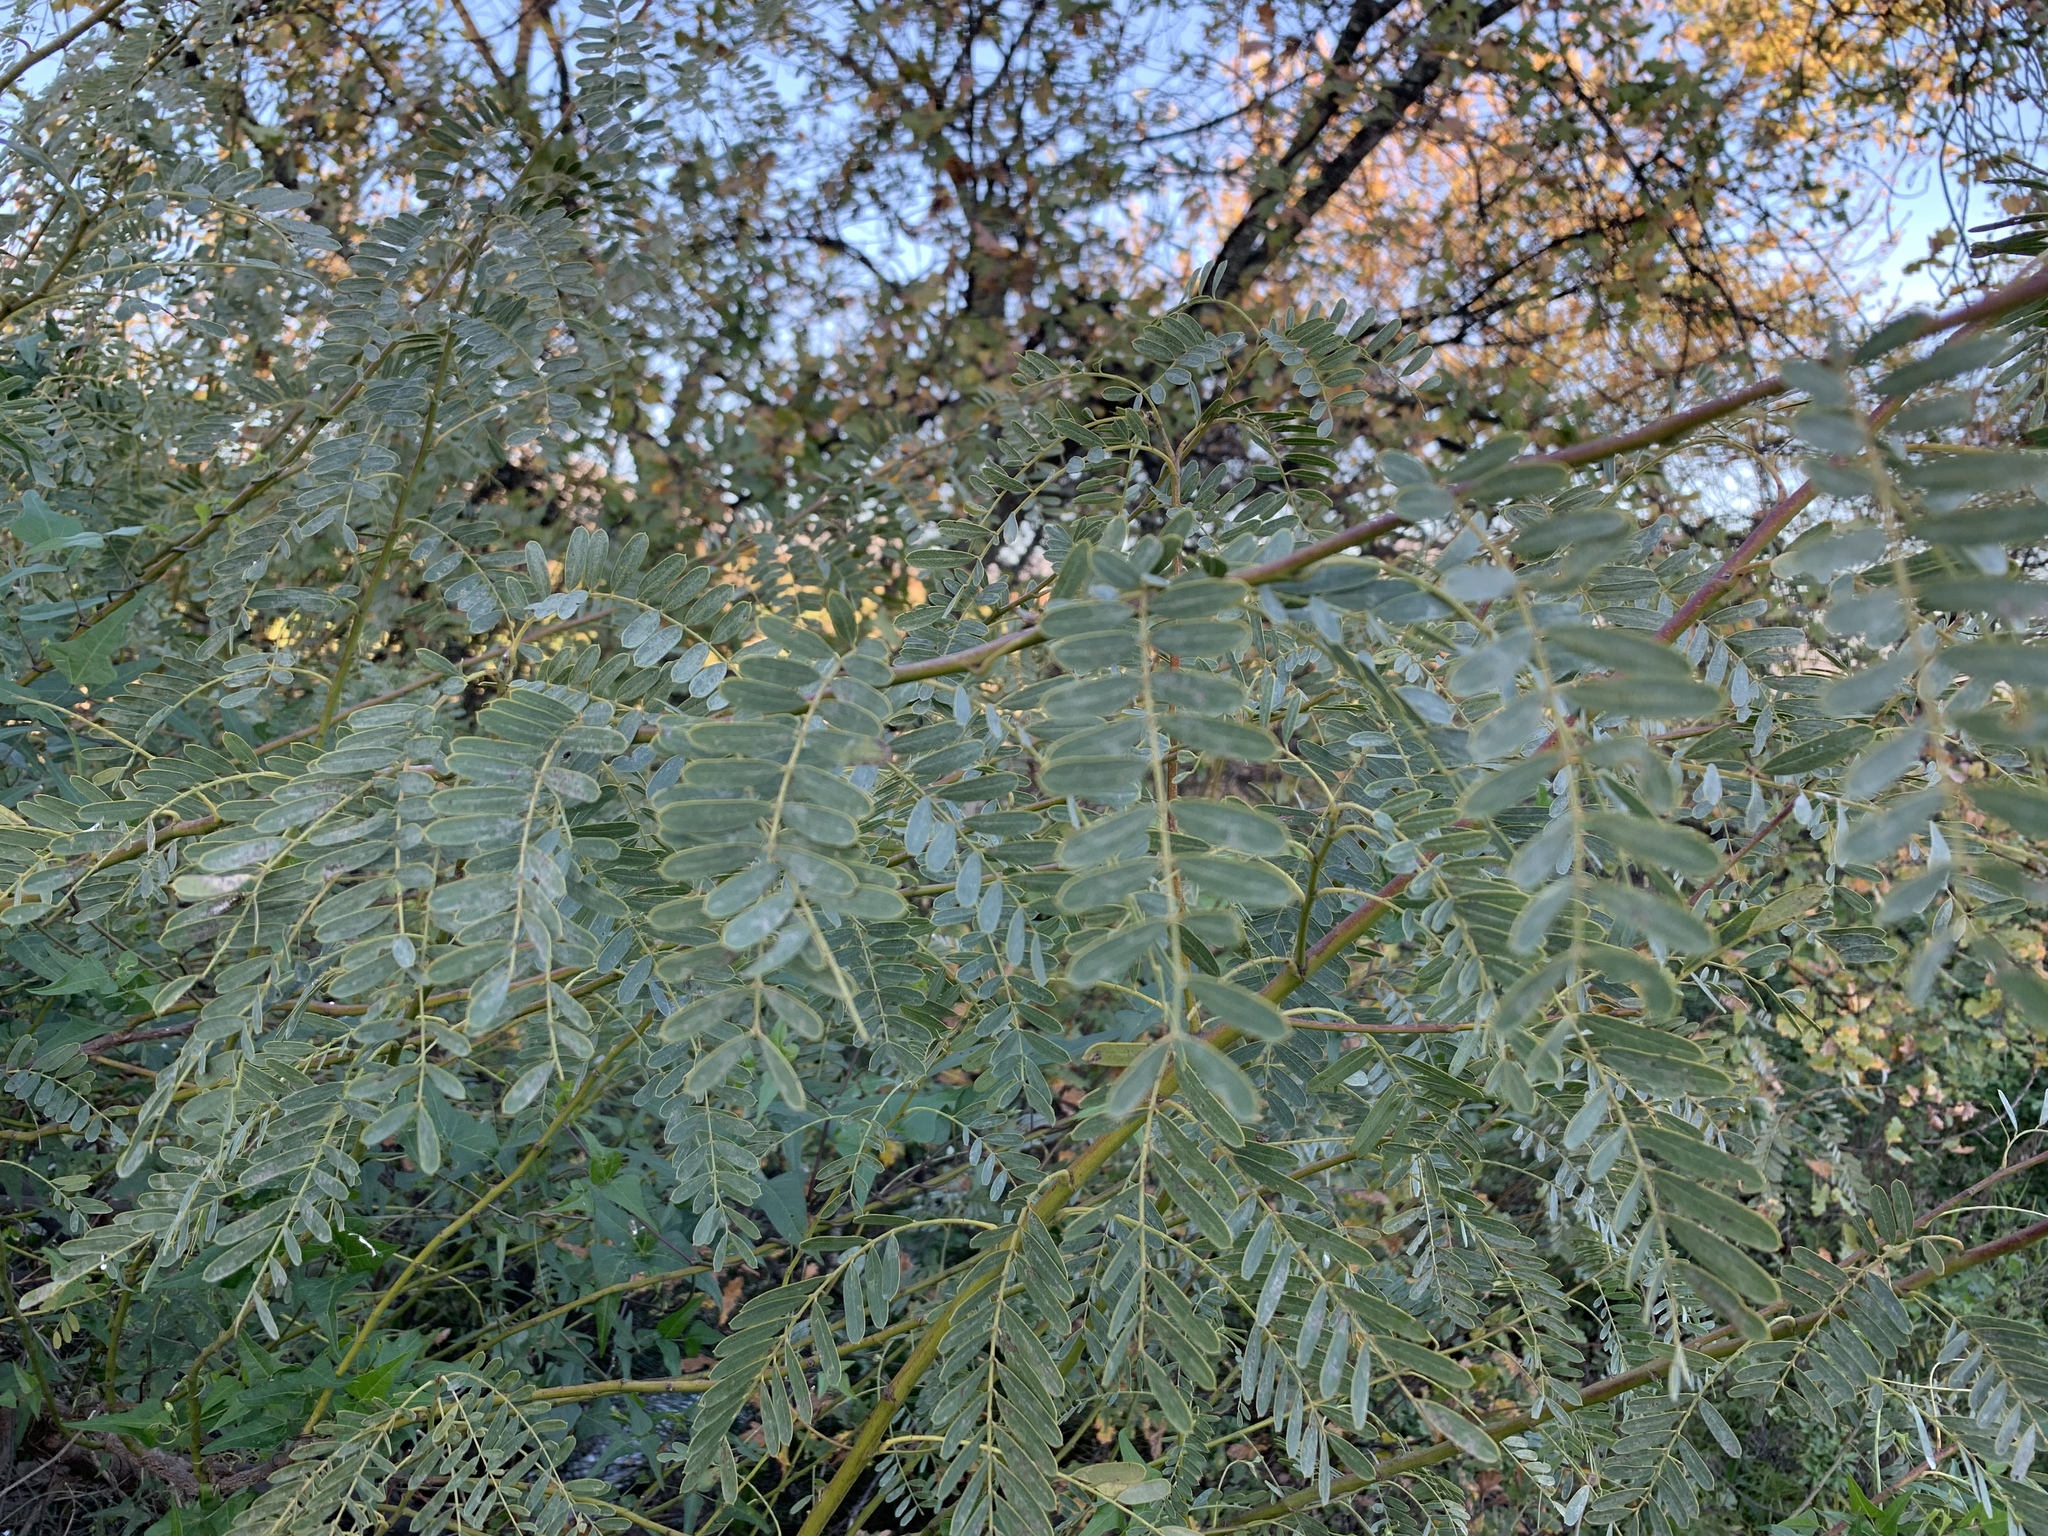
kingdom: Plantae
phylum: Tracheophyta
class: Magnoliopsida
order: Fabales
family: Fabaceae
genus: Sesbania
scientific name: Sesbania punicea
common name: Rattlebox
